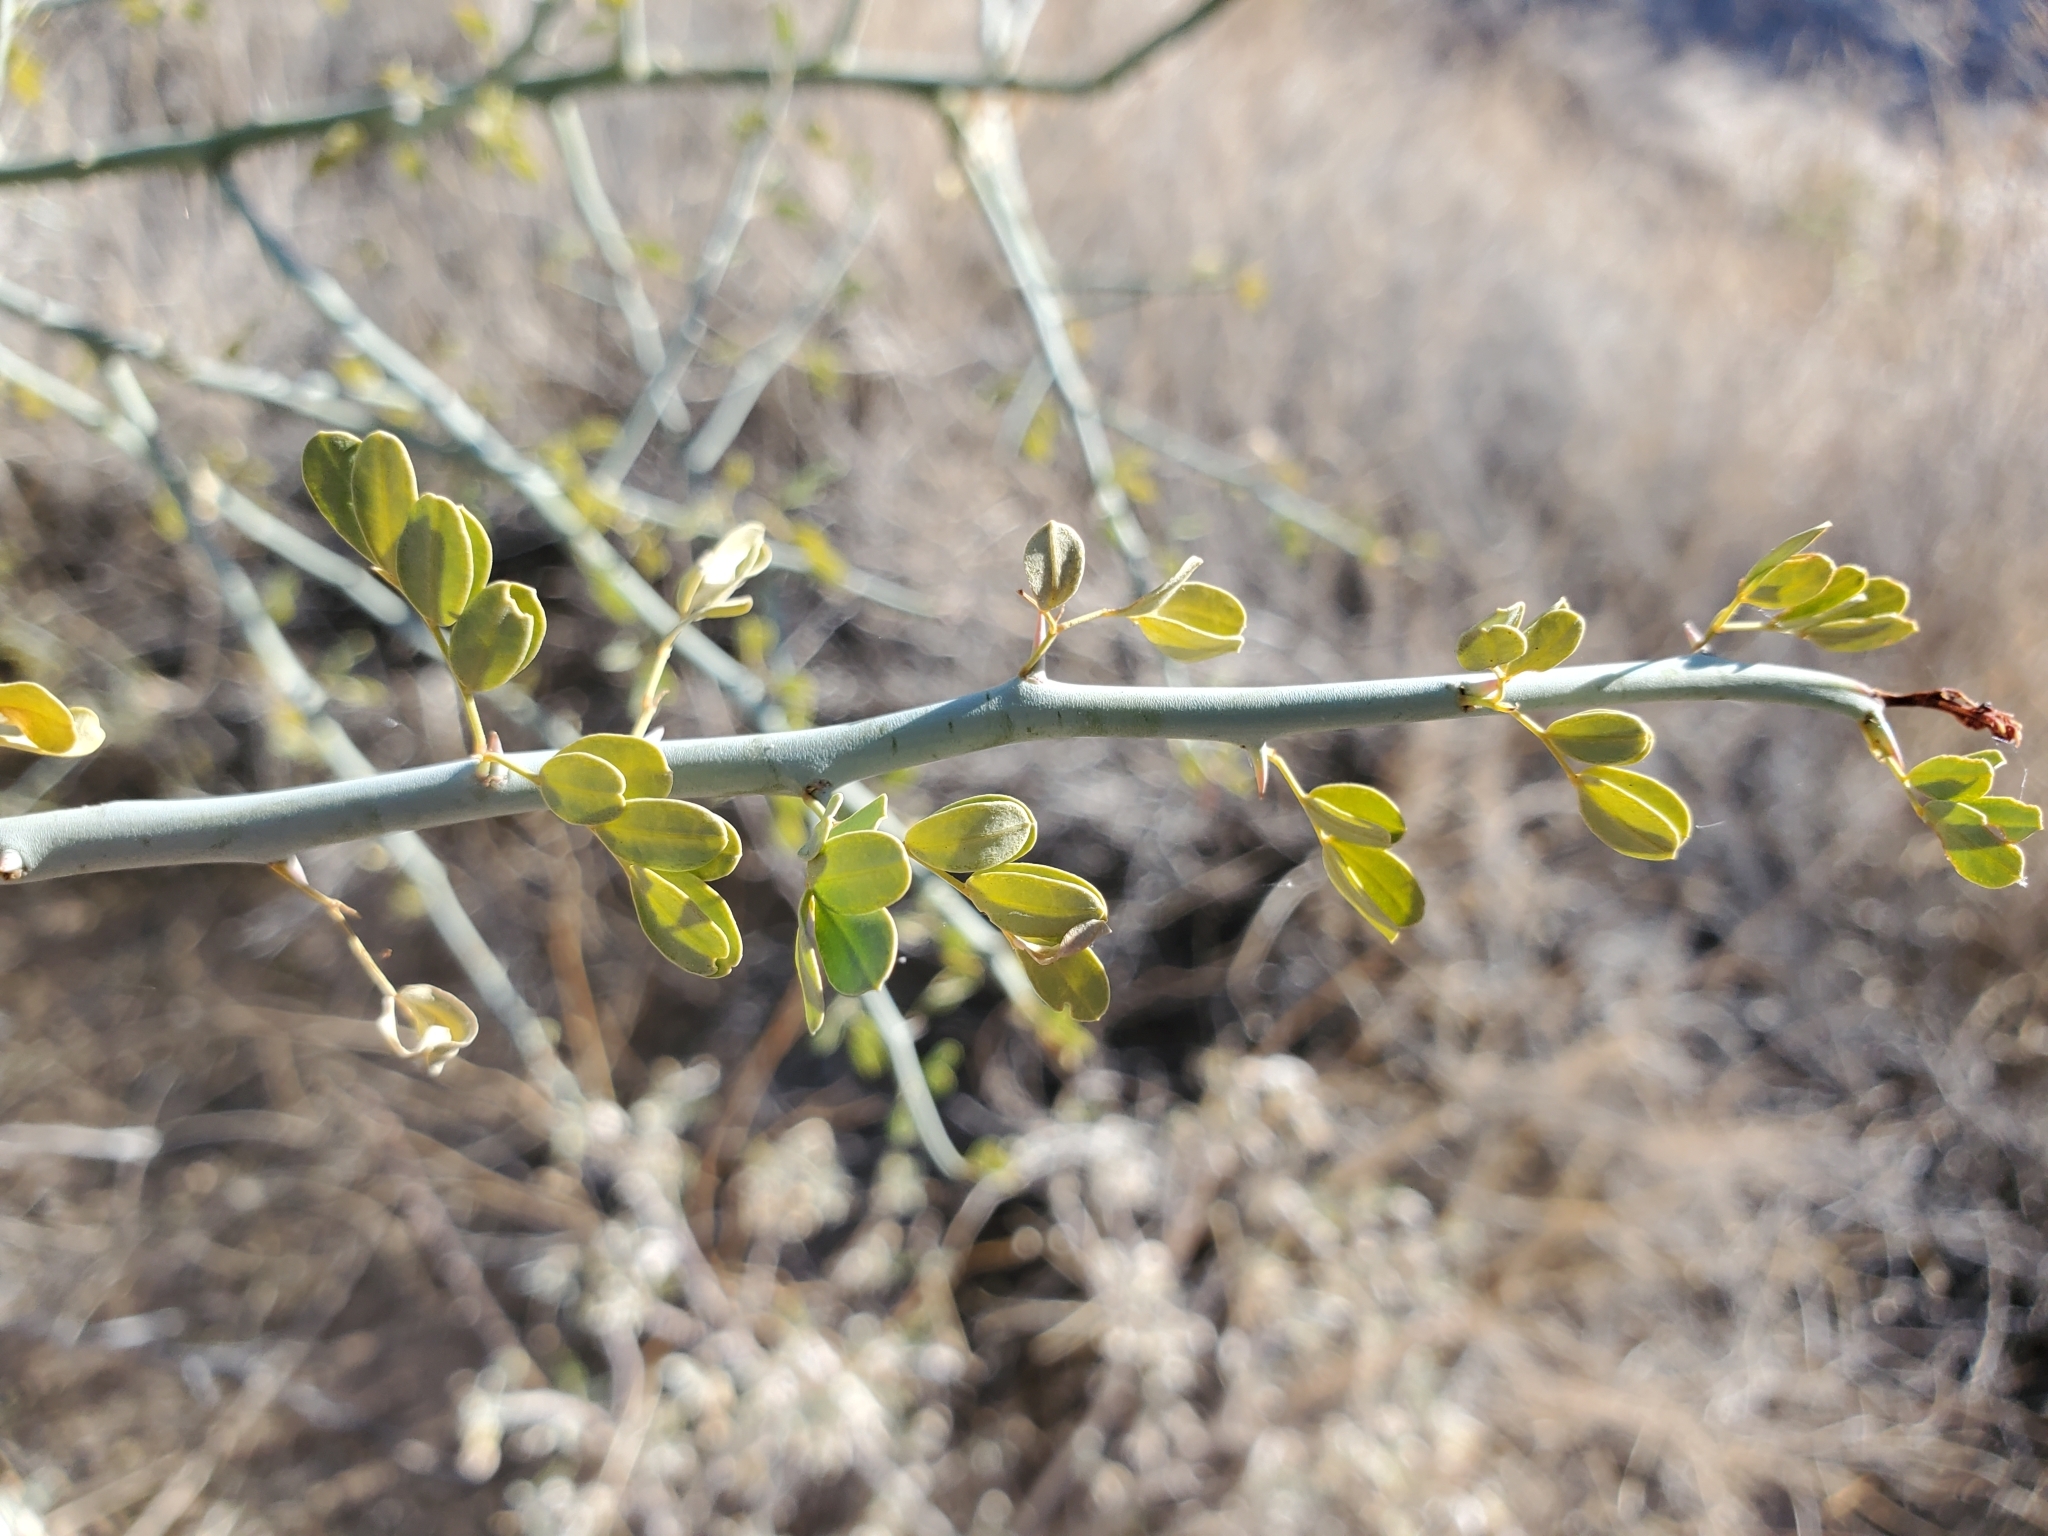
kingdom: Plantae
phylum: Tracheophyta
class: Magnoliopsida
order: Fabales
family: Fabaceae
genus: Parkinsonia
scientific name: Parkinsonia florida
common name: Blue paloverde
